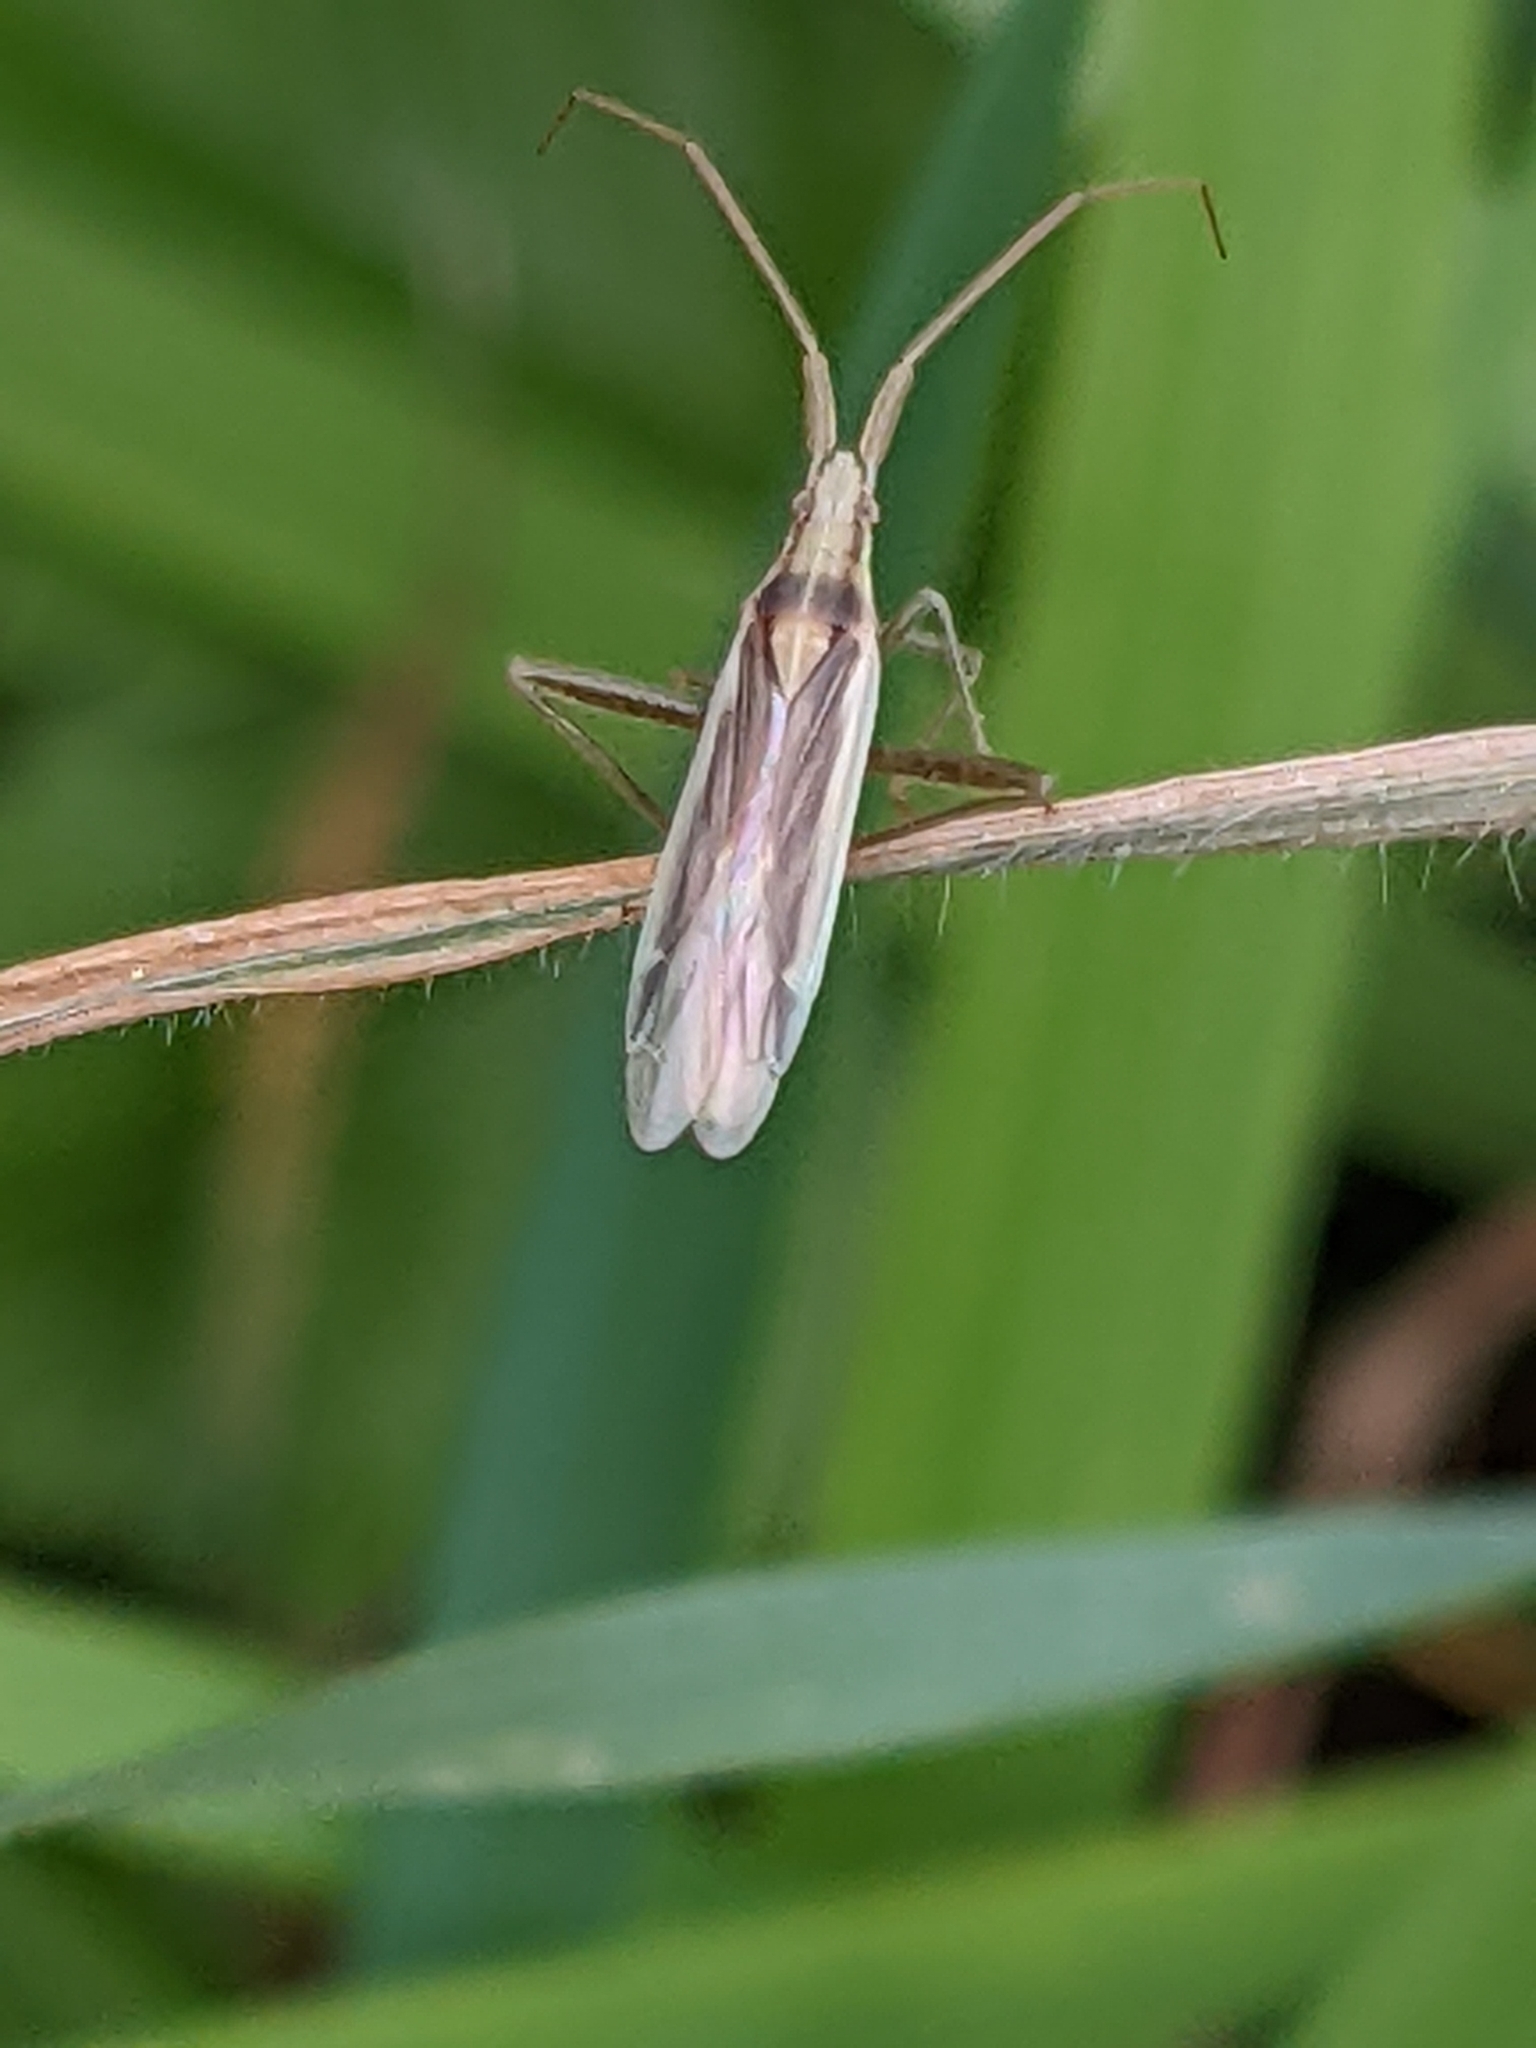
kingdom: Animalia
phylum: Arthropoda
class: Insecta
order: Hemiptera
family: Miridae
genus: Stenodema
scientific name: Stenodema laevigata
